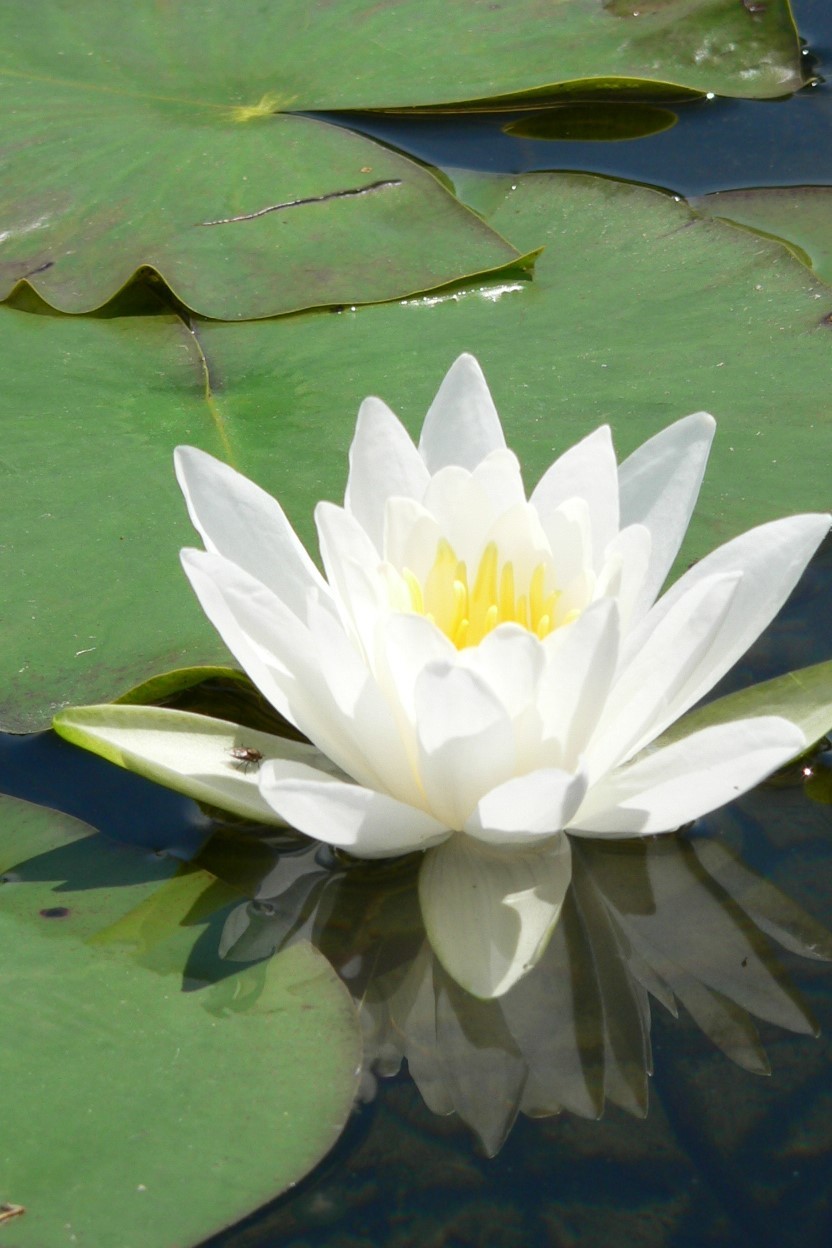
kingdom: Plantae
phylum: Tracheophyta
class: Magnoliopsida
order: Nymphaeales
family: Nymphaeaceae
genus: Nymphaea
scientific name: Nymphaea odorata
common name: Fragrant water-lily
